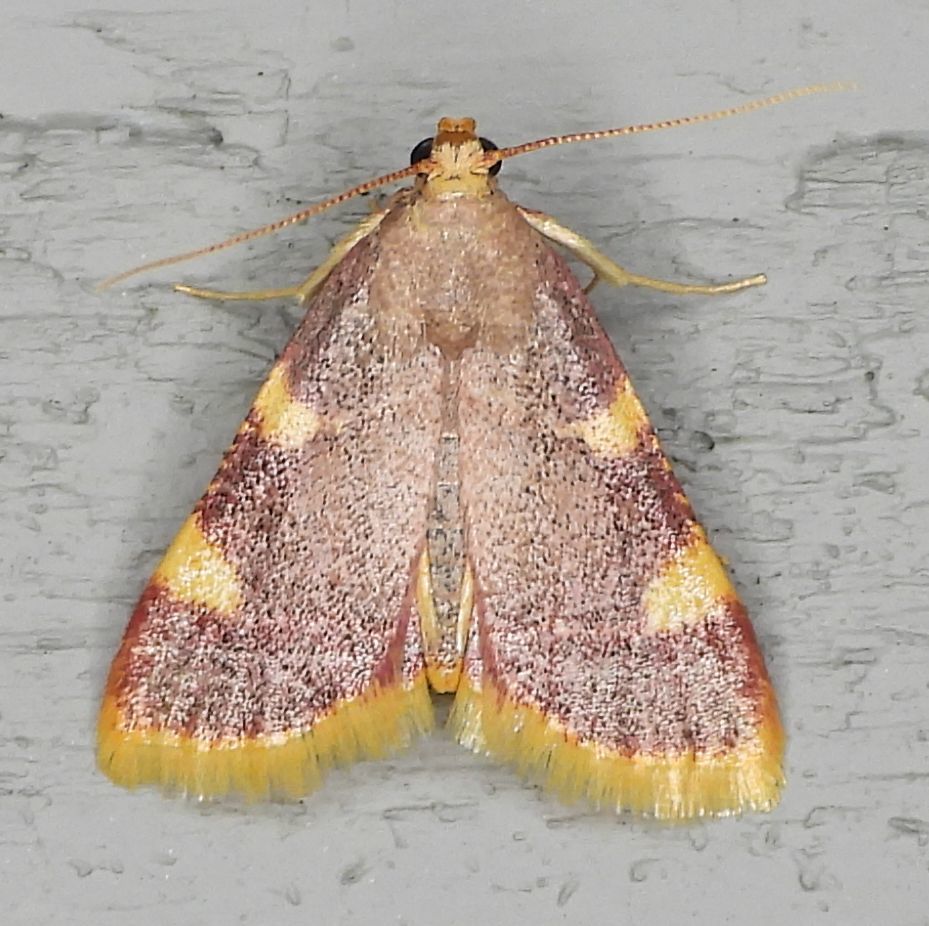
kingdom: Animalia
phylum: Arthropoda
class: Insecta
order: Lepidoptera
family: Pyralidae
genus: Hypsopygia
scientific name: Hypsopygia costalis
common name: Gold triangle
